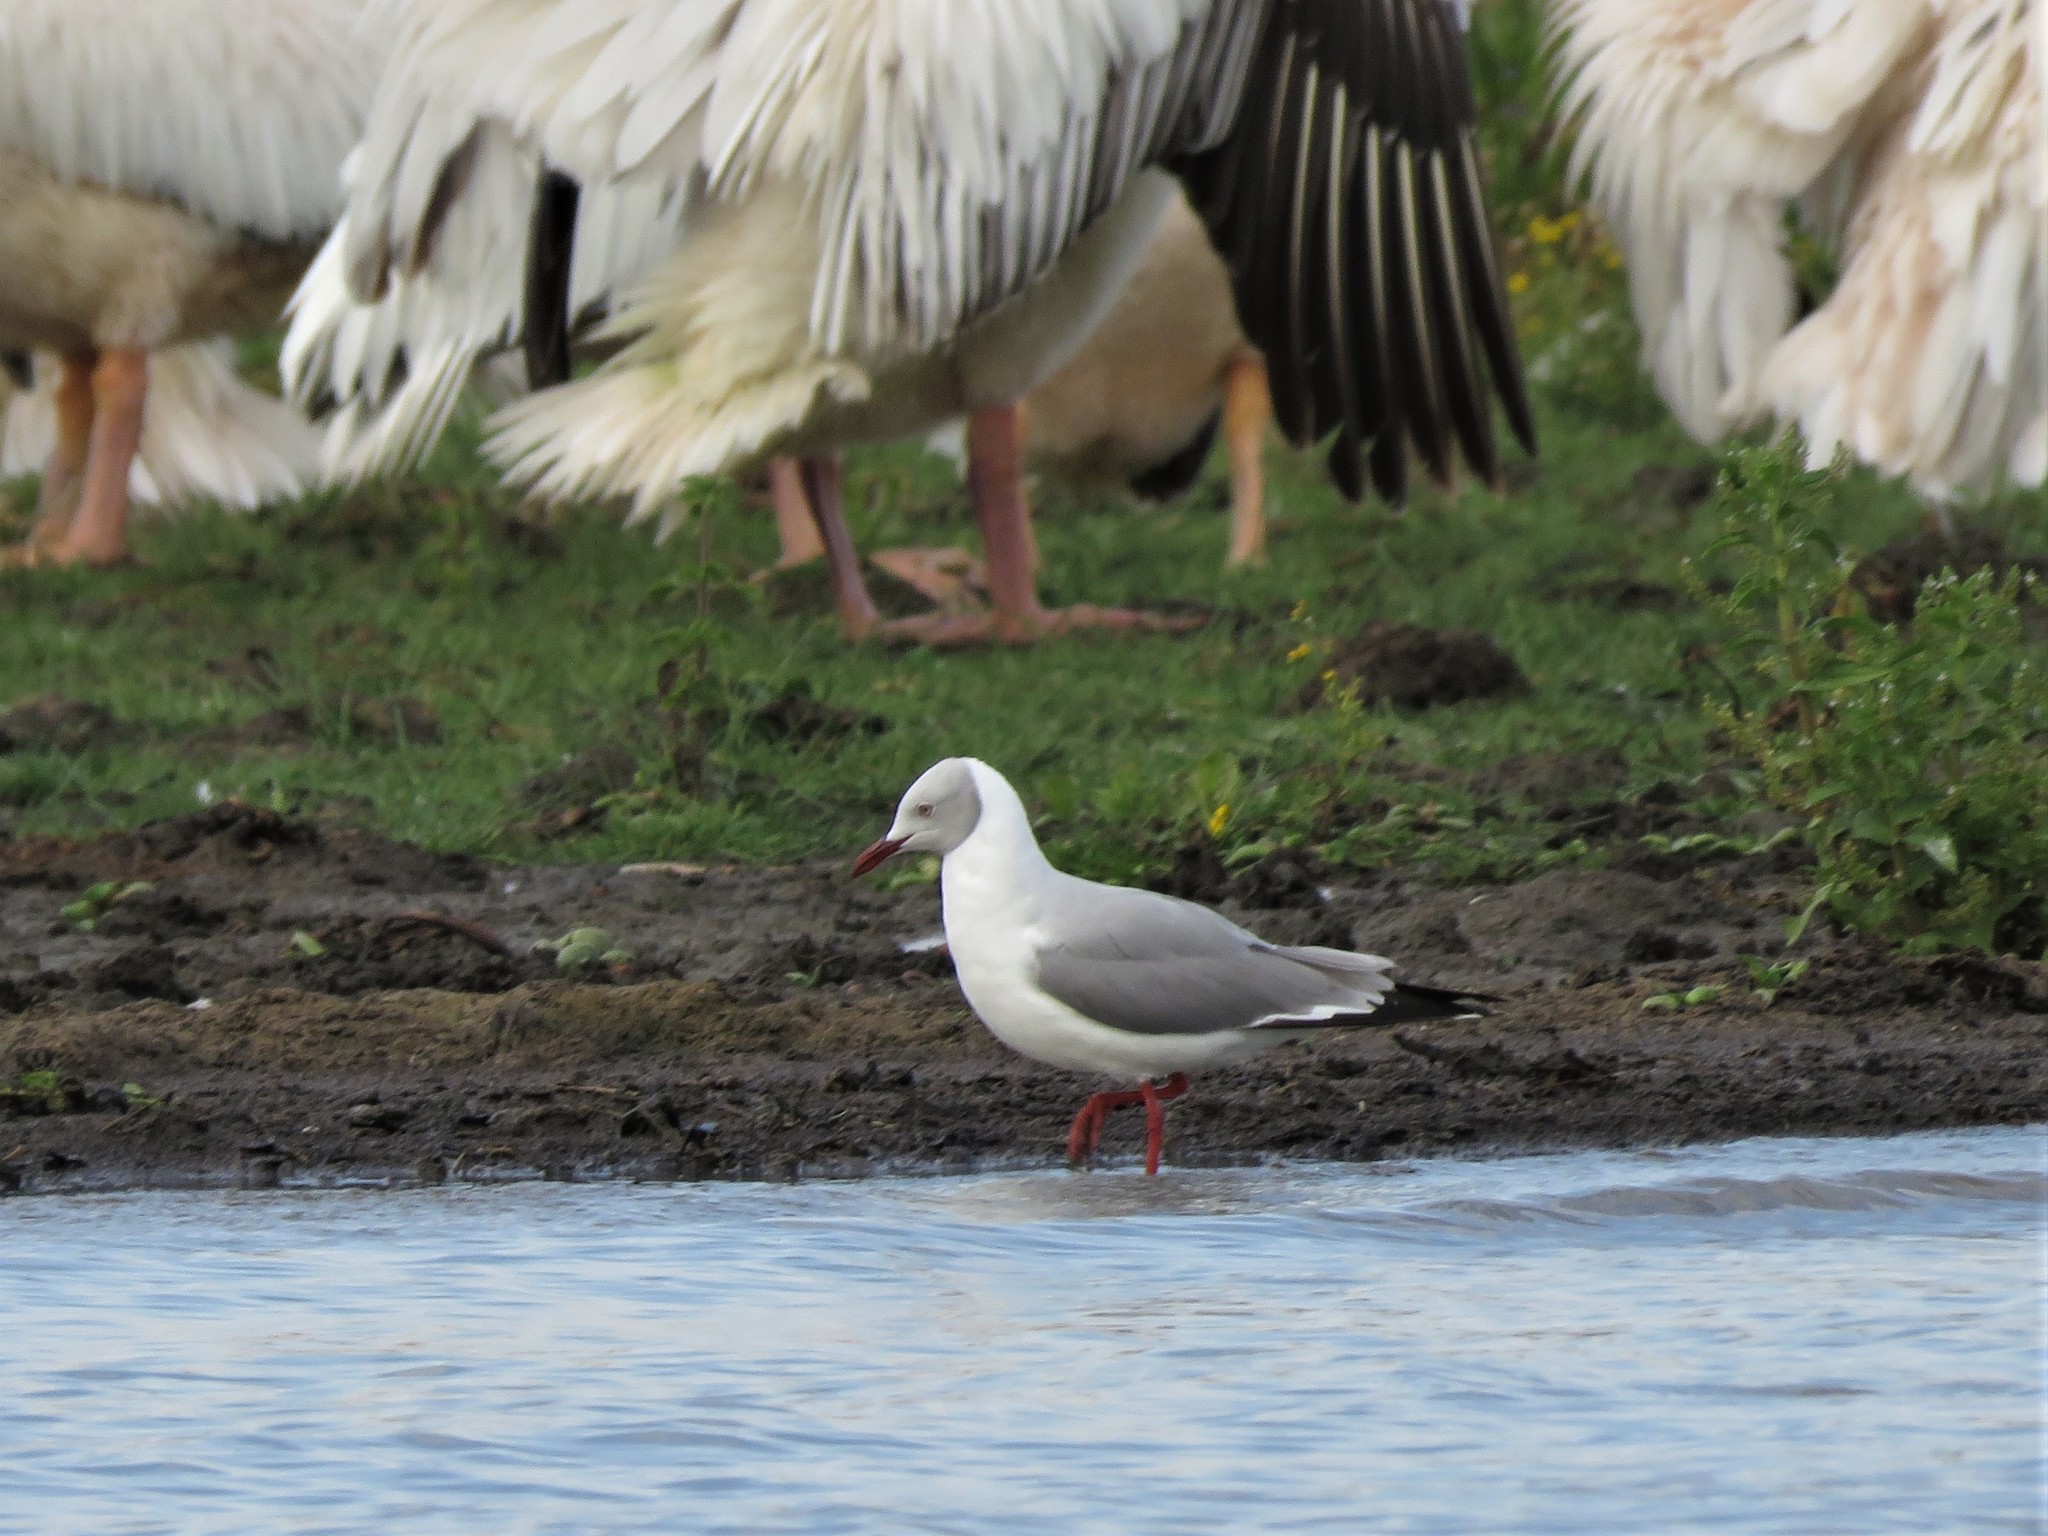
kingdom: Animalia
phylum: Chordata
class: Aves
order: Charadriiformes
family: Laridae
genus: Chroicocephalus
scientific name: Chroicocephalus cirrocephalus
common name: Grey-headed gull
